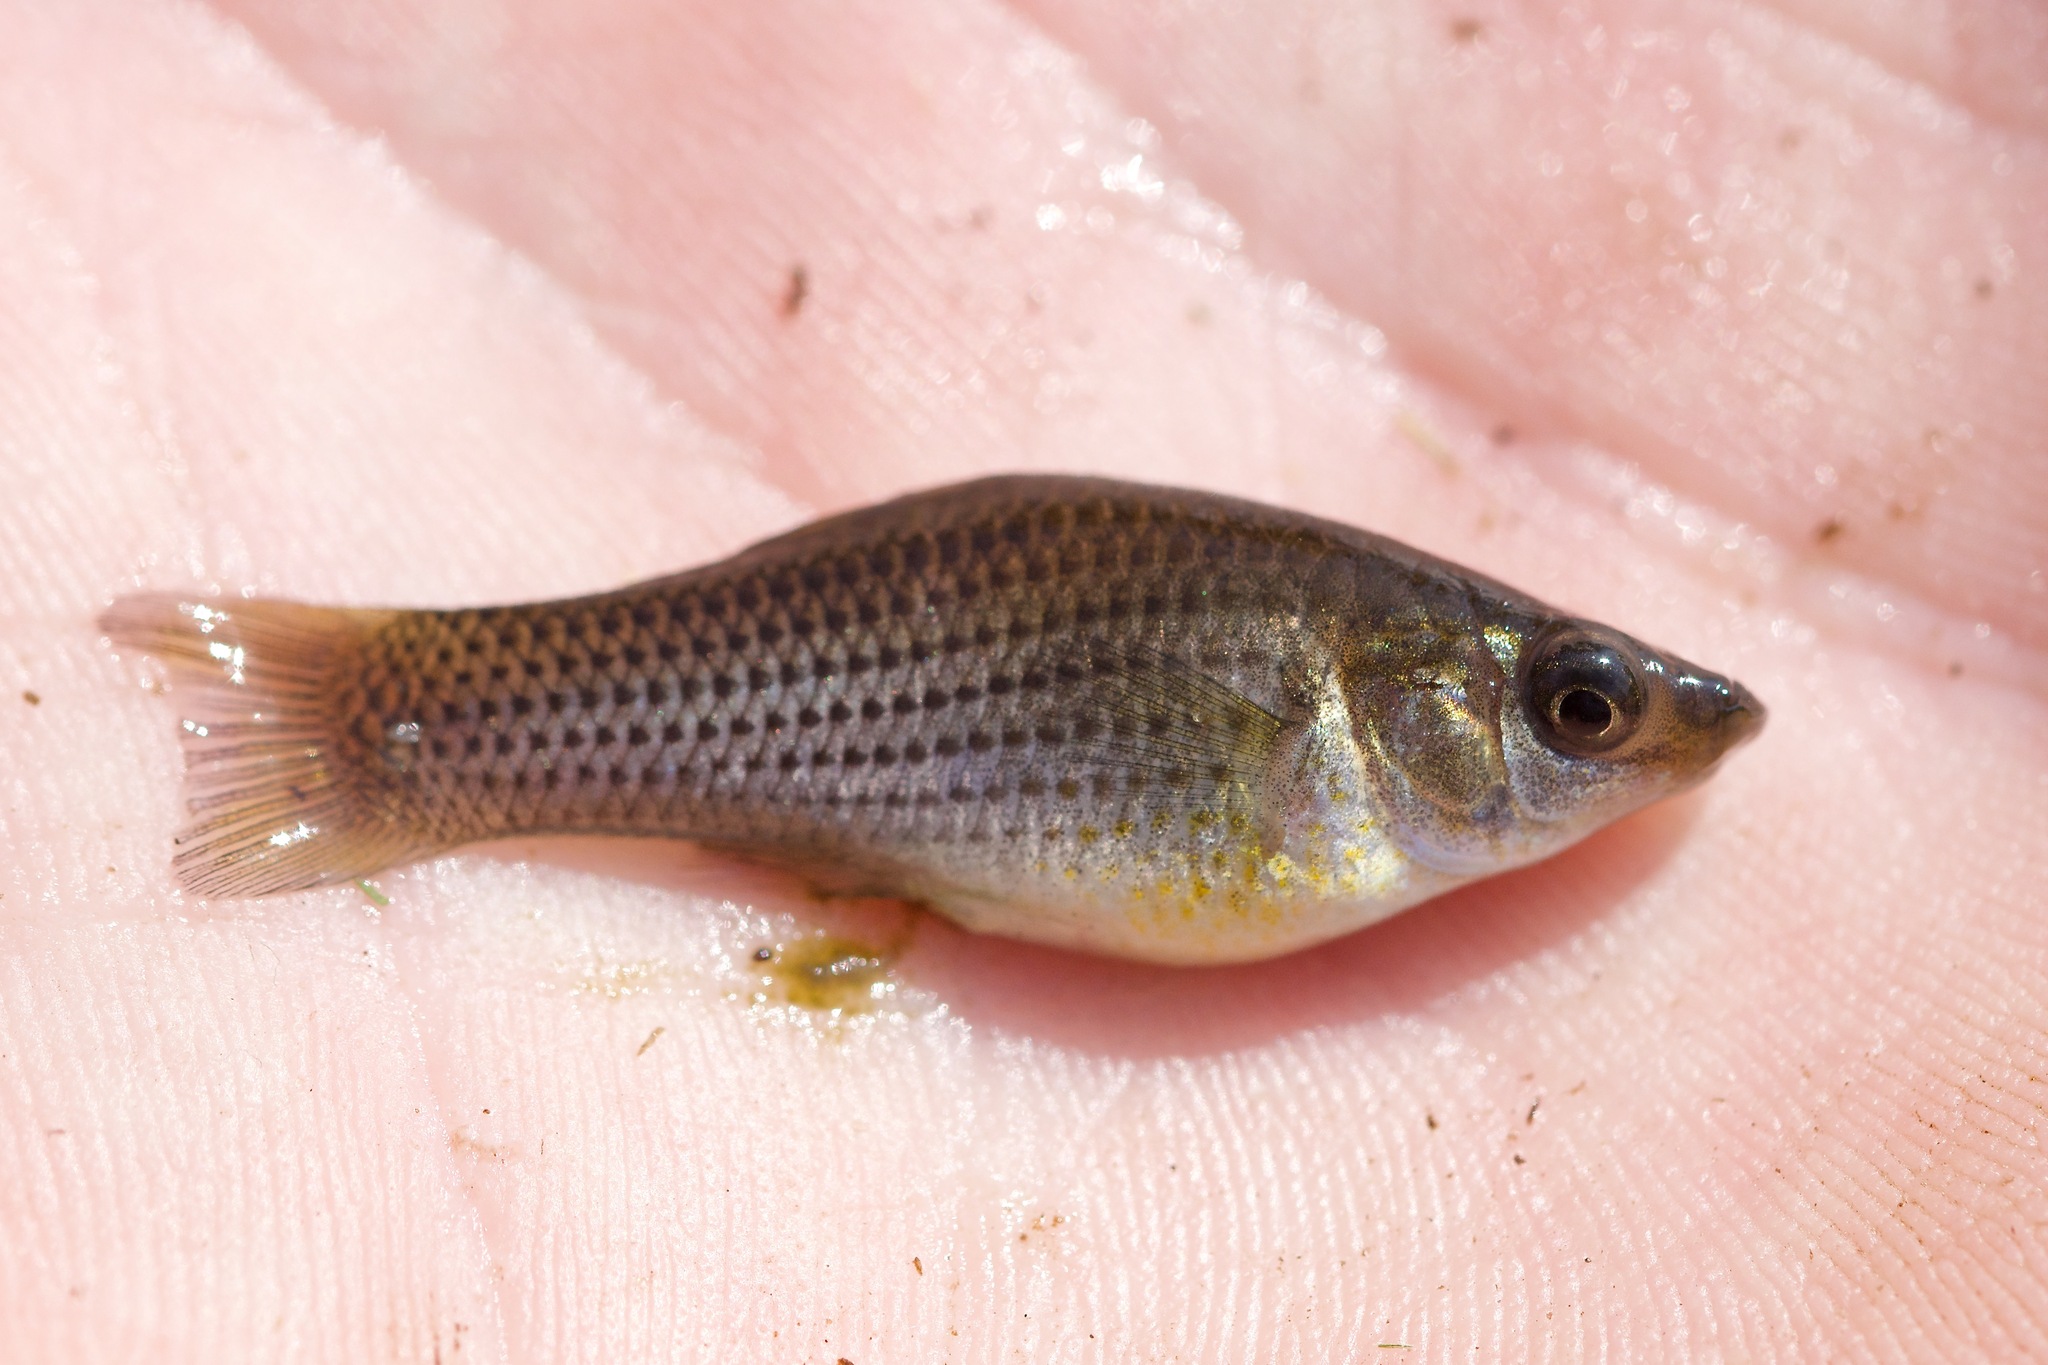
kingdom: Animalia
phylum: Chordata
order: Cyprinodontiformes
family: Poeciliidae
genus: Poecilia
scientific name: Poecilia latipinna
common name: Sailfin molly
